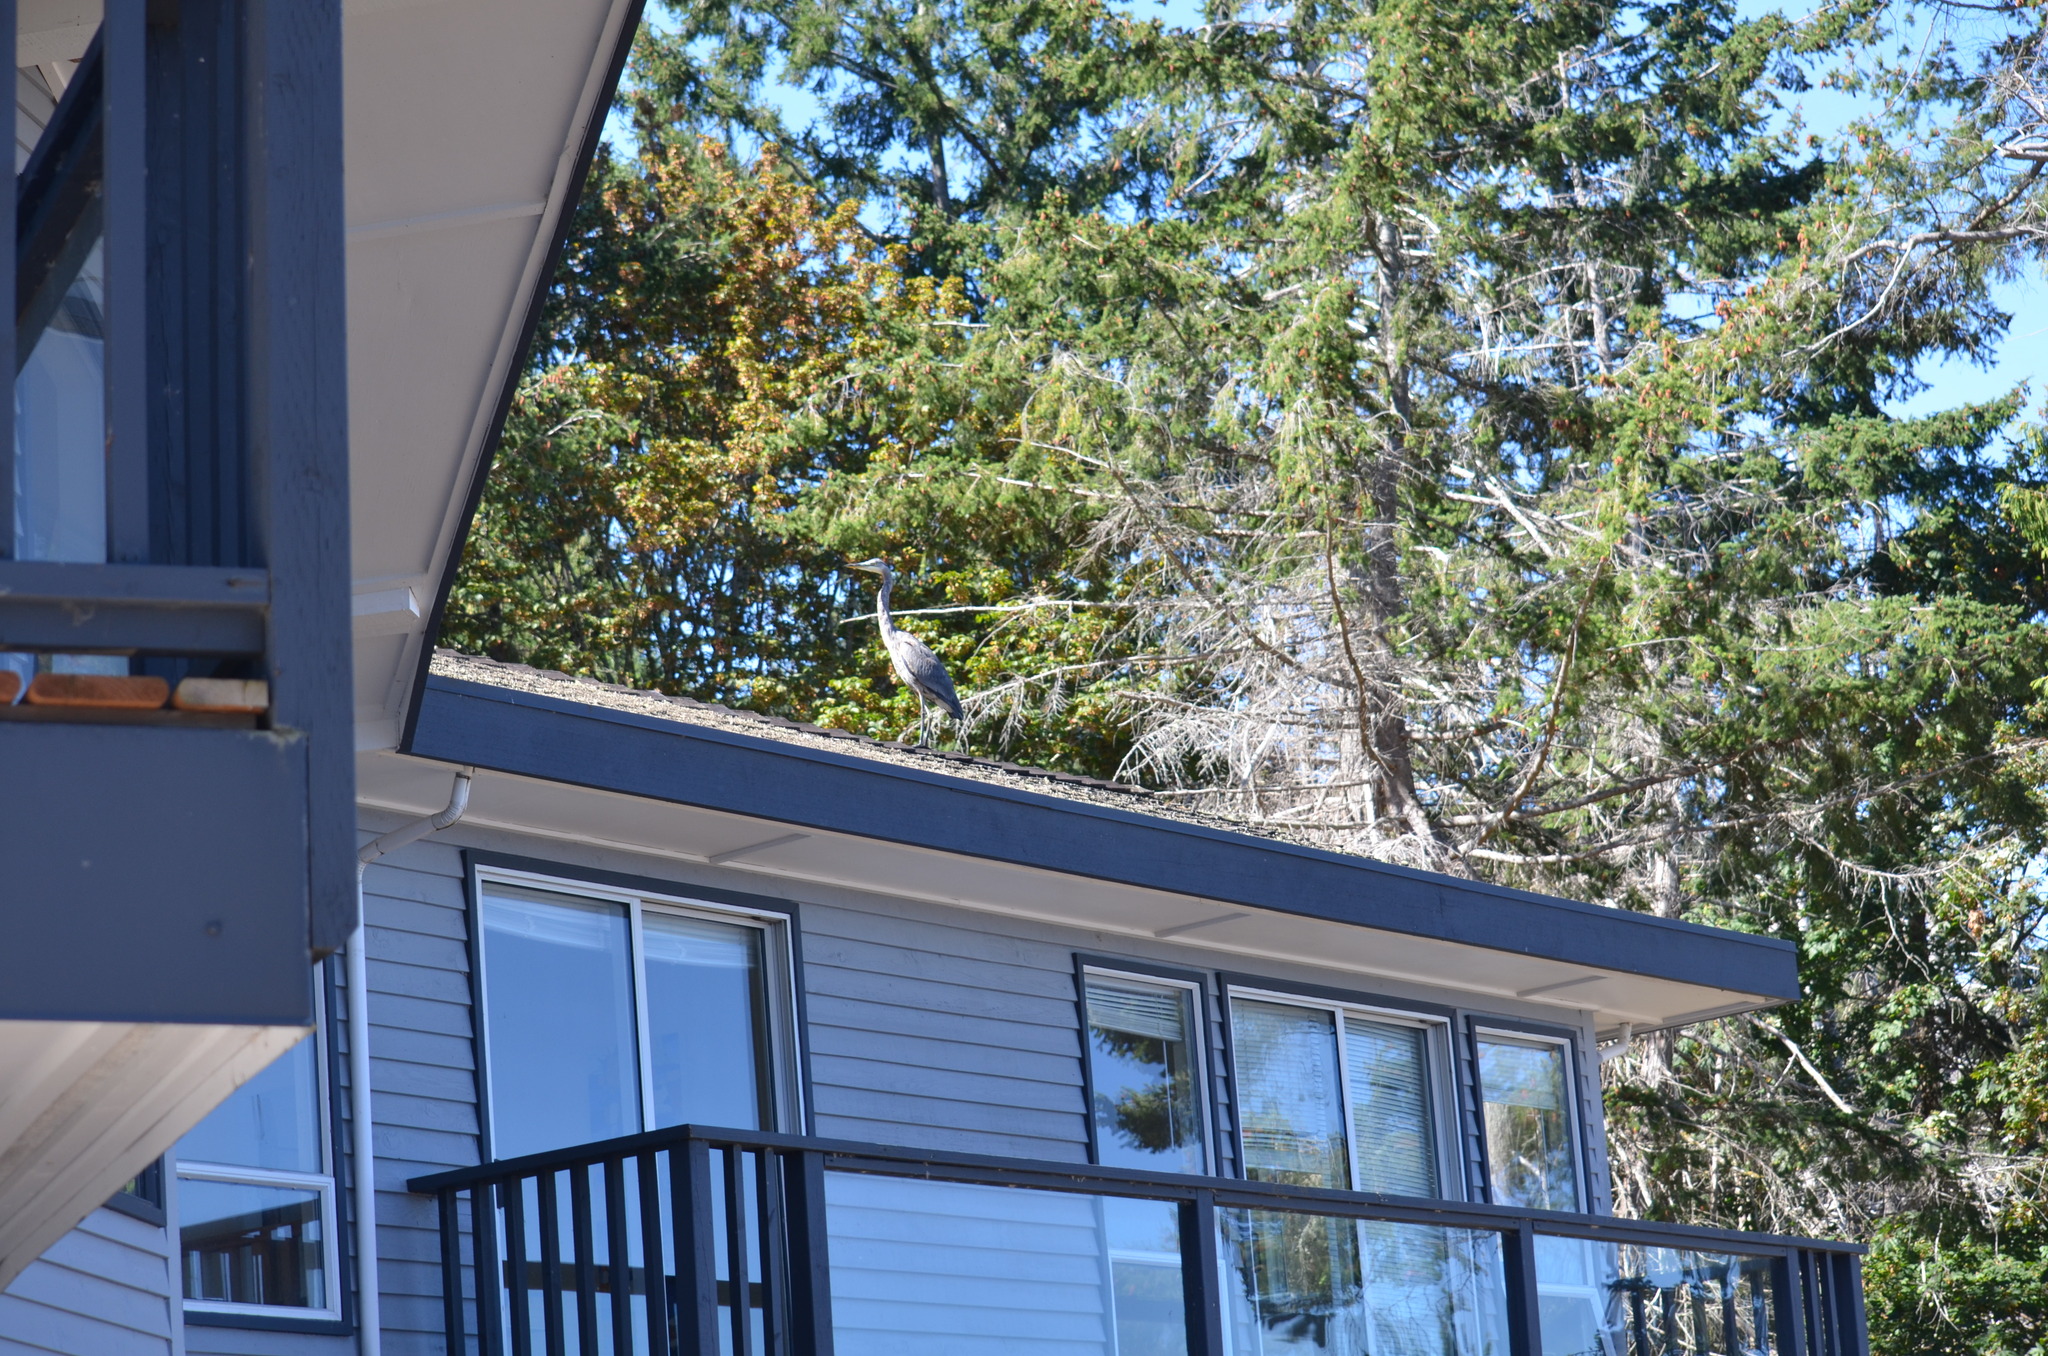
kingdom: Animalia
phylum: Chordata
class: Aves
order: Pelecaniformes
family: Ardeidae
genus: Ardea
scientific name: Ardea herodias
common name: Great blue heron
